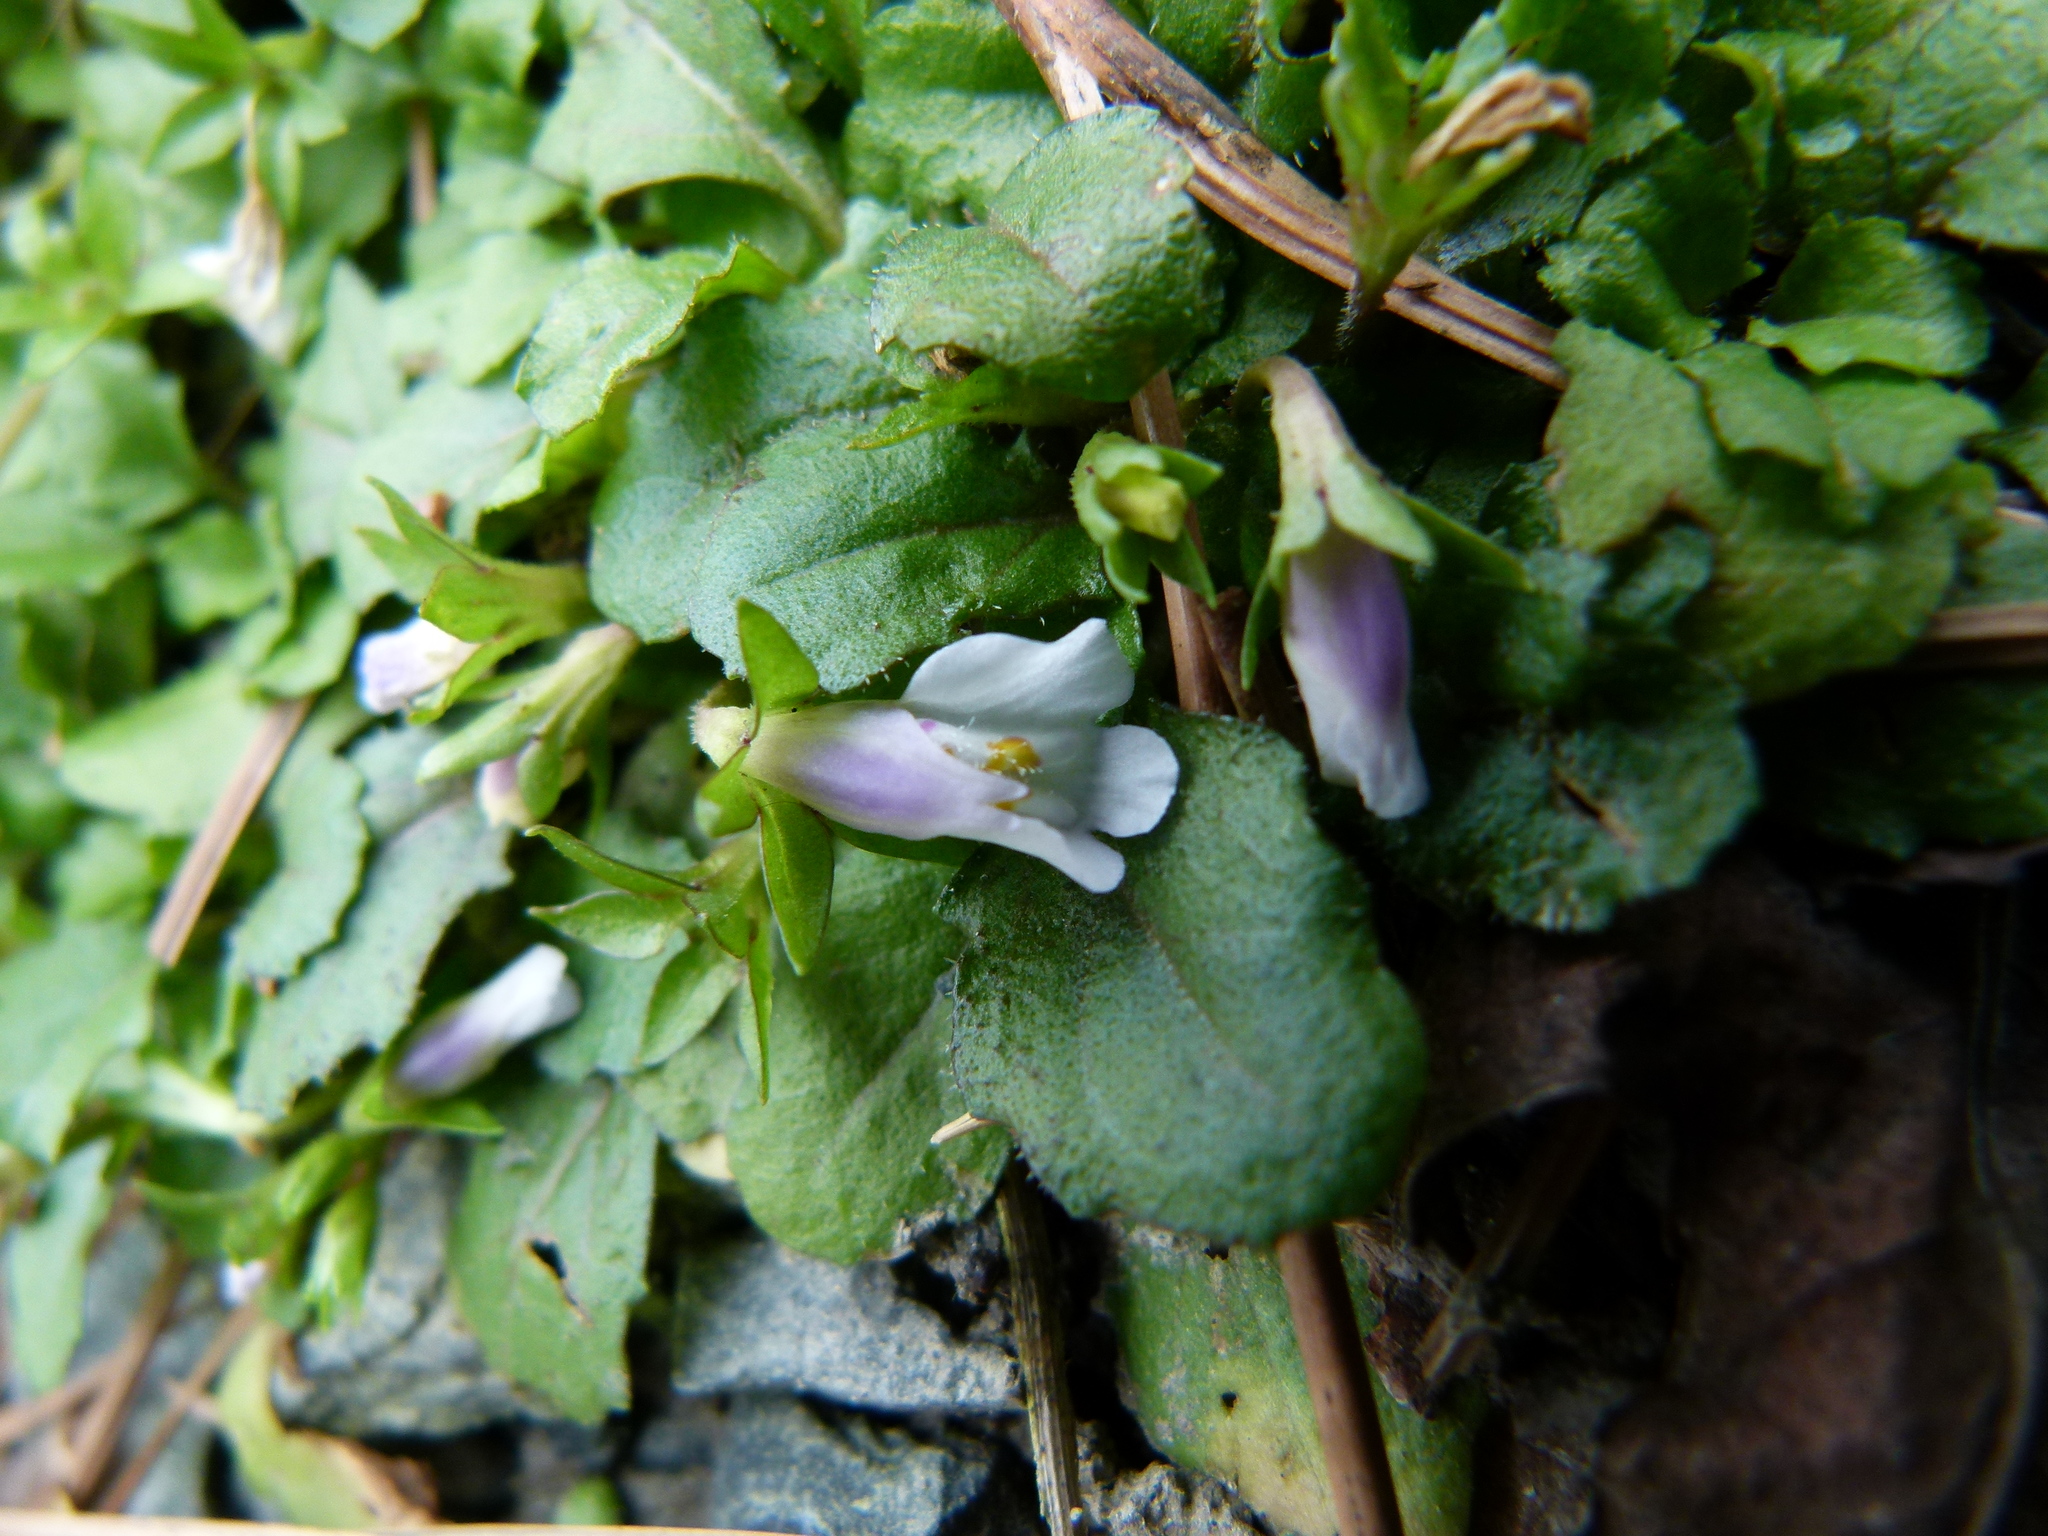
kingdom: Plantae
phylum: Tracheophyta
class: Magnoliopsida
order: Lamiales
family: Mazaceae
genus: Mazus
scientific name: Mazus pumilus
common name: Japanese mazus
